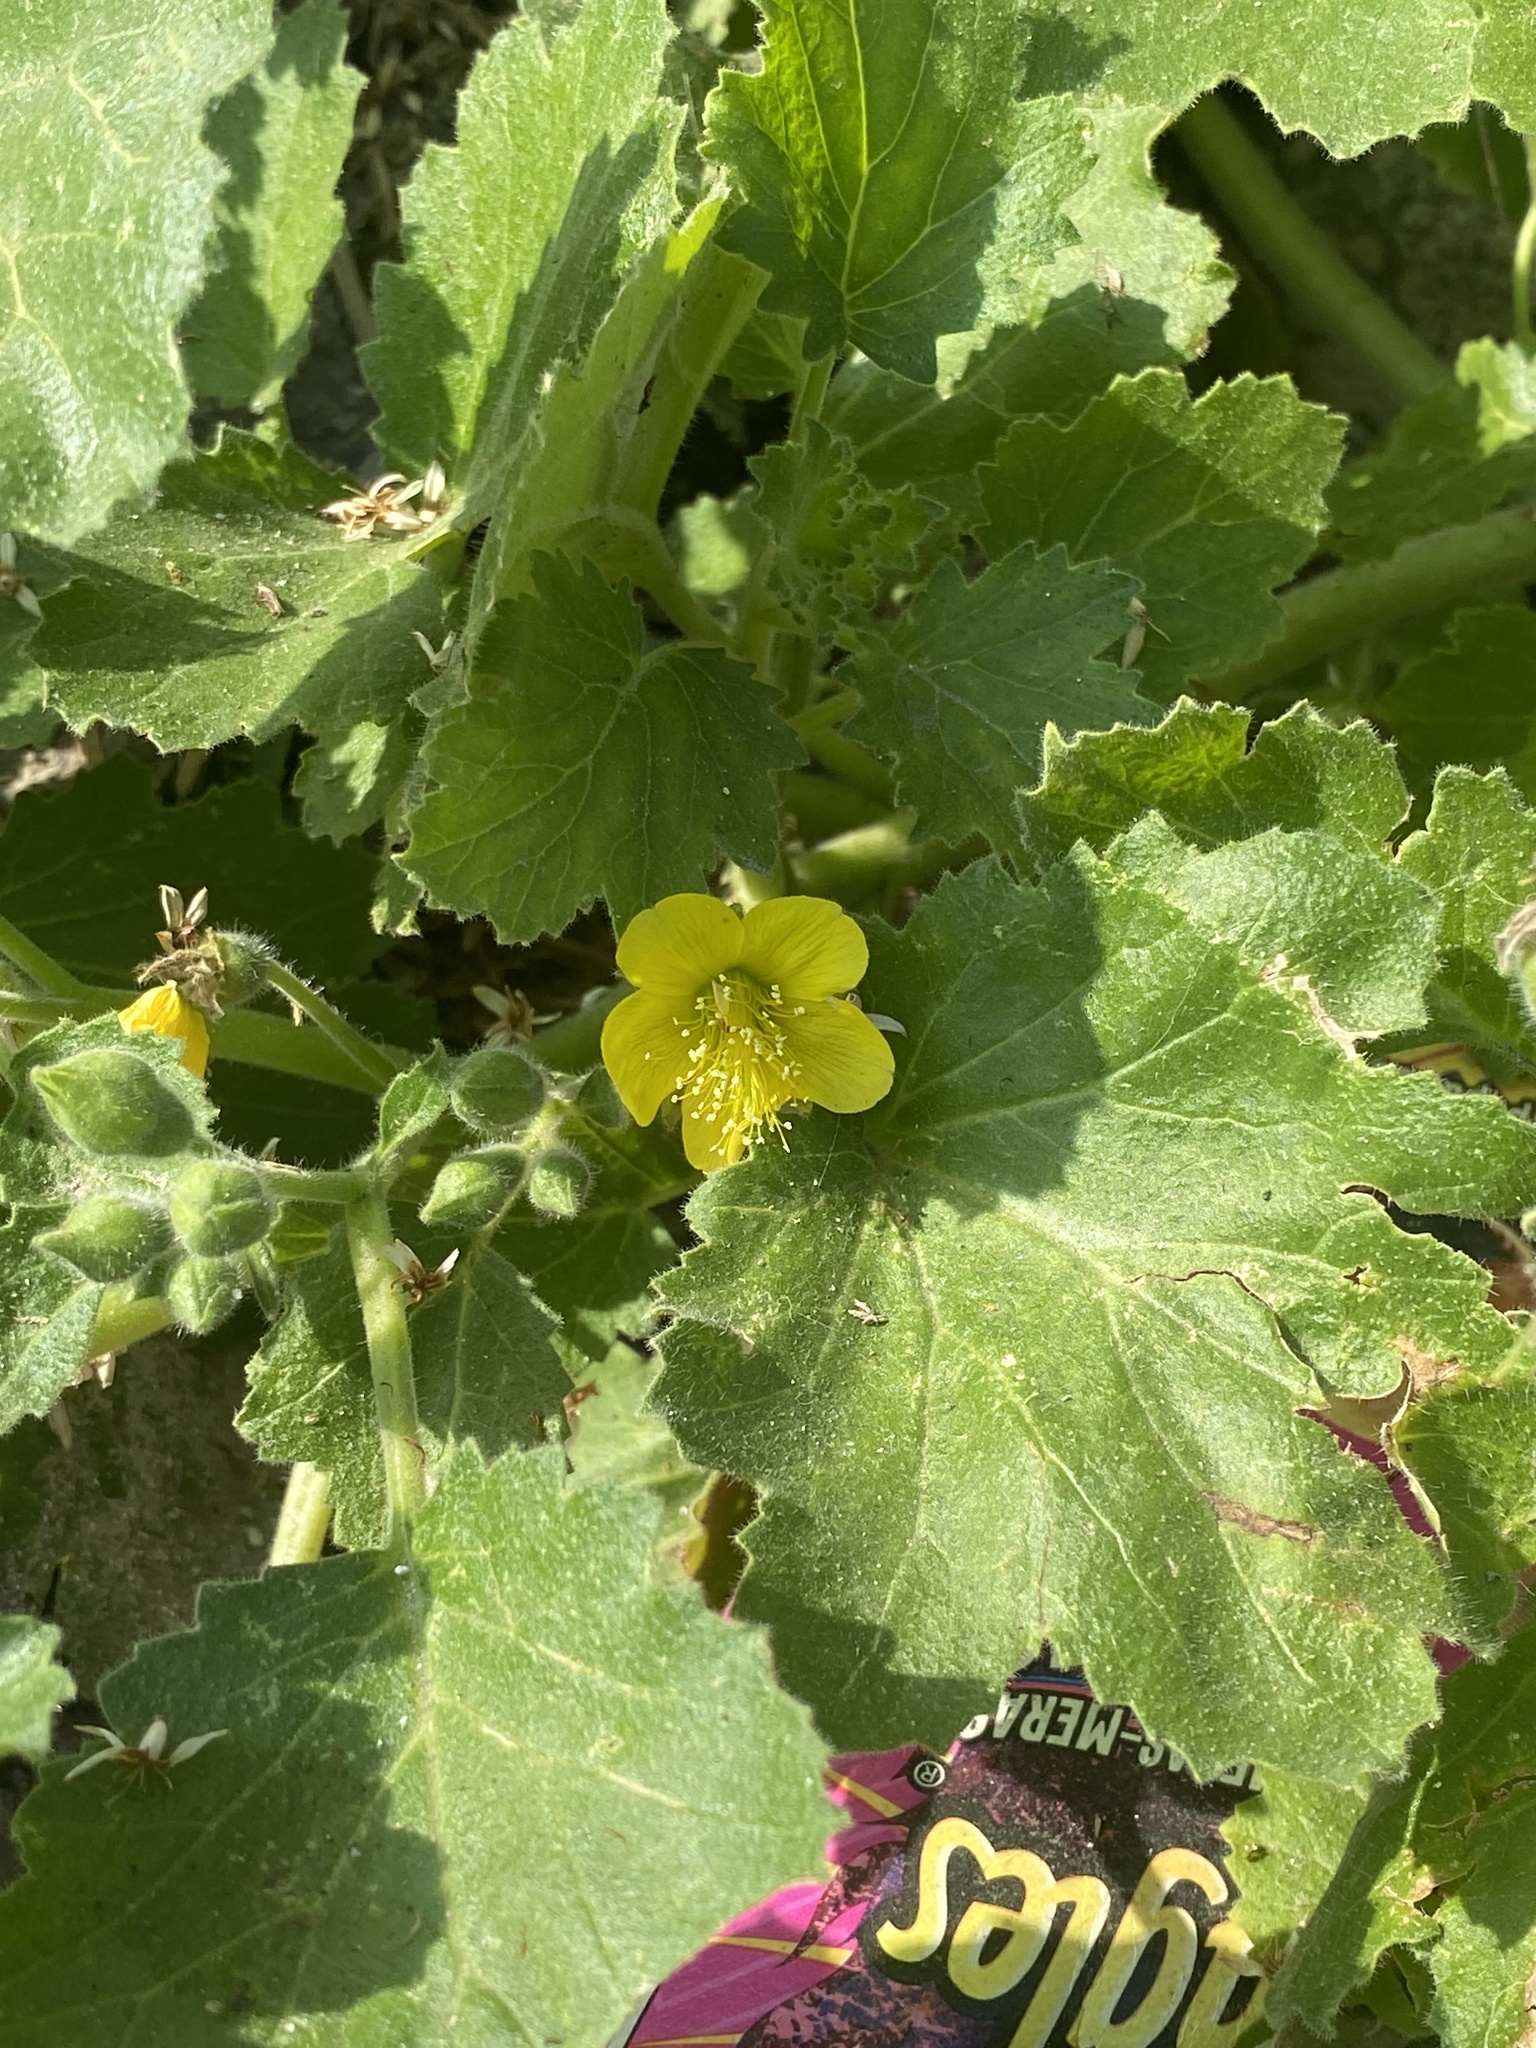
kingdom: Plantae
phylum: Tracheophyta
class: Magnoliopsida
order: Cornales
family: Loasaceae
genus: Eucnide
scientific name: Eucnide lobata
